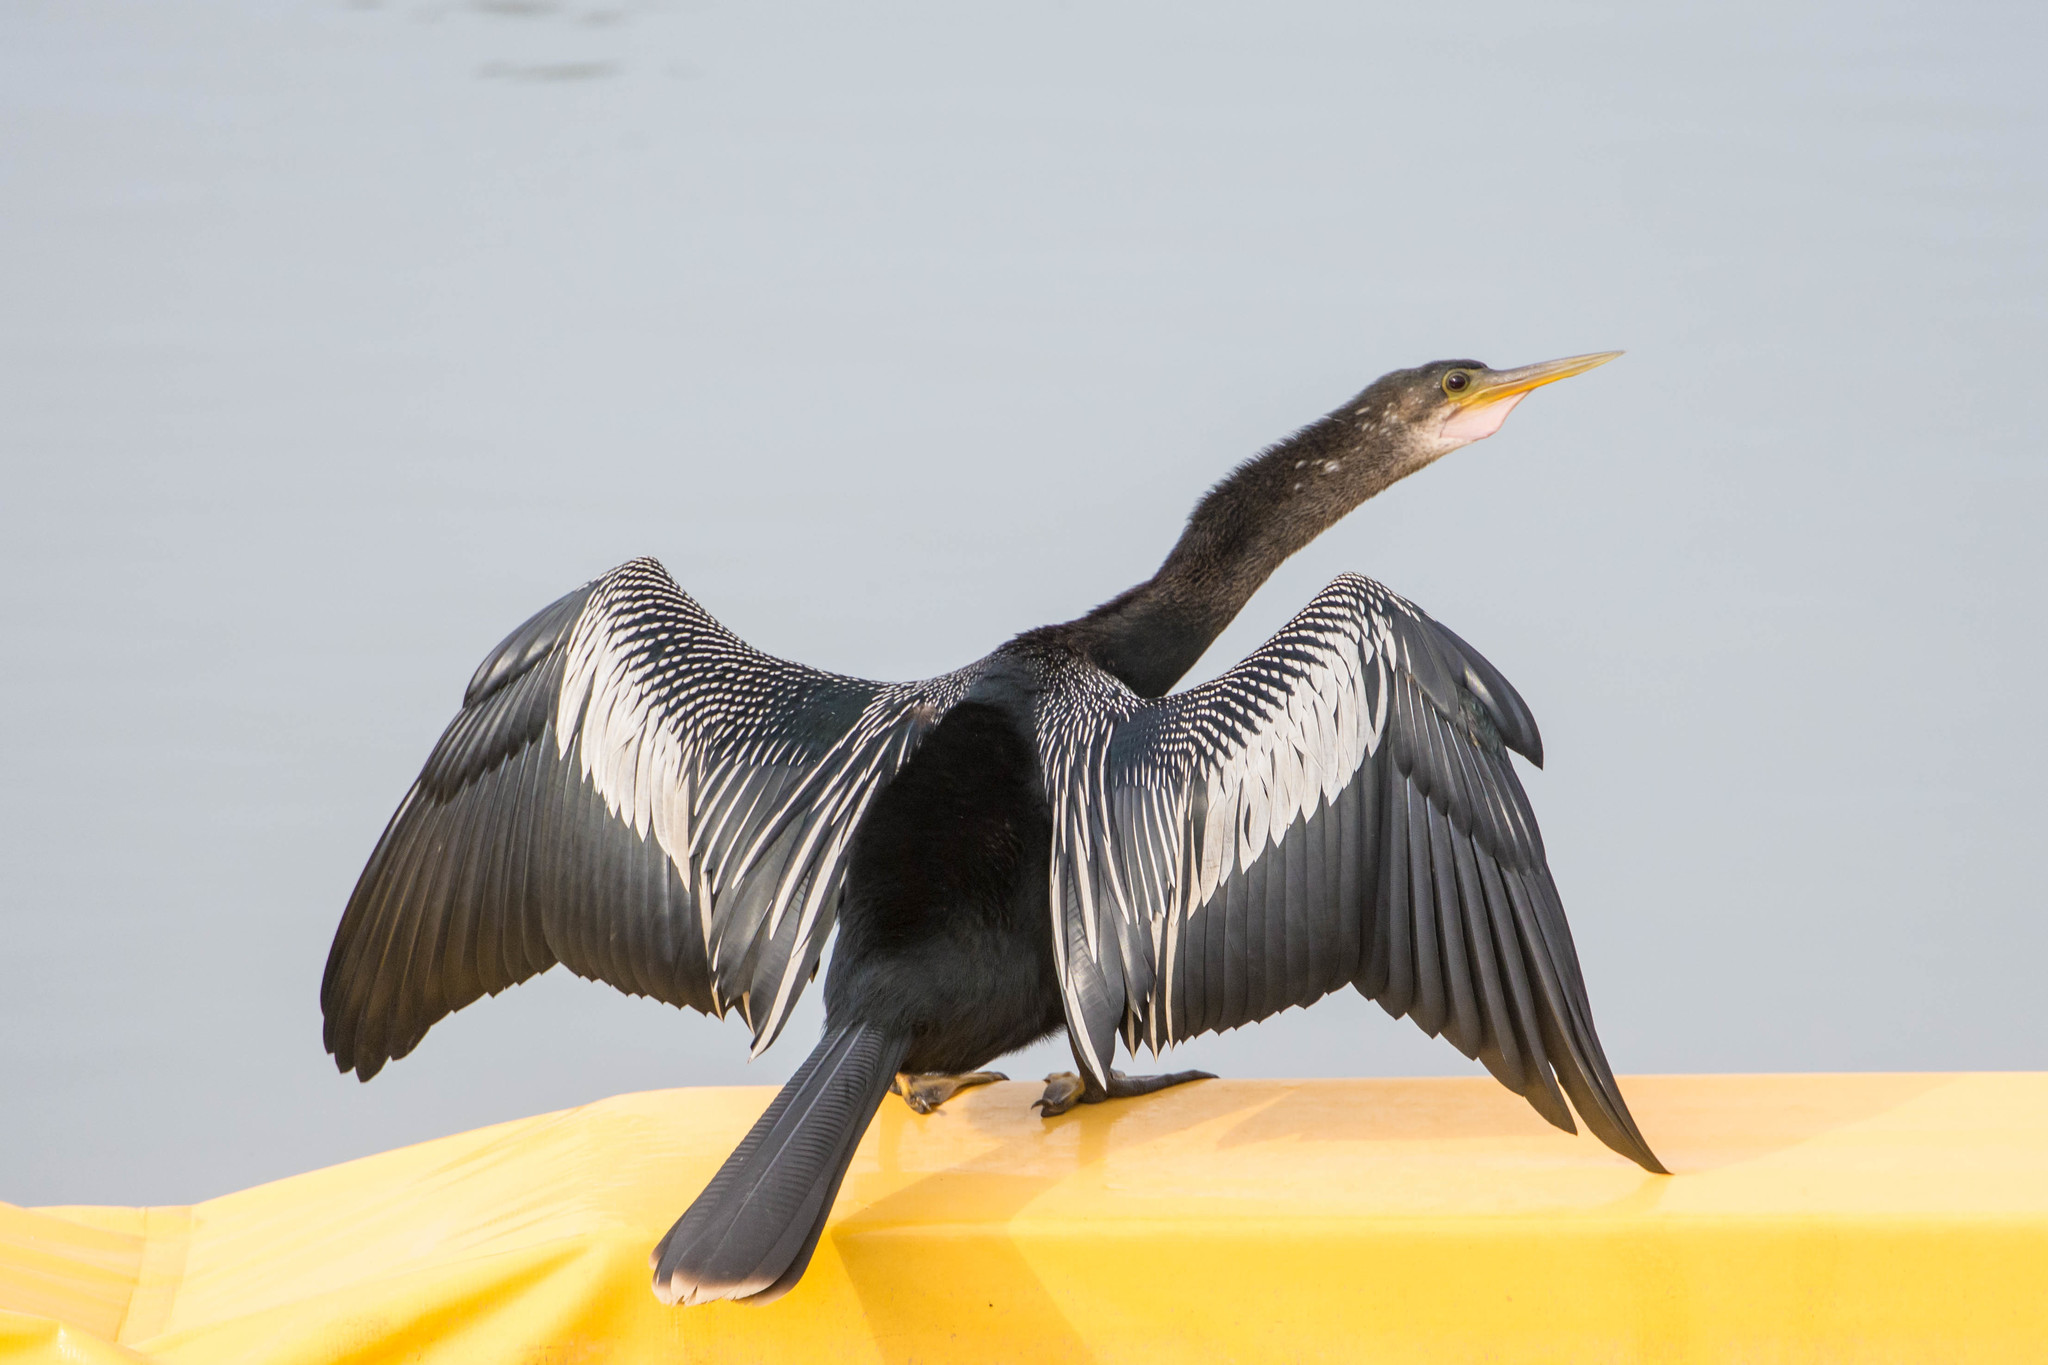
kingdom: Animalia
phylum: Chordata
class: Aves
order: Suliformes
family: Anhingidae
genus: Anhinga
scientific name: Anhinga anhinga
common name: Anhinga
